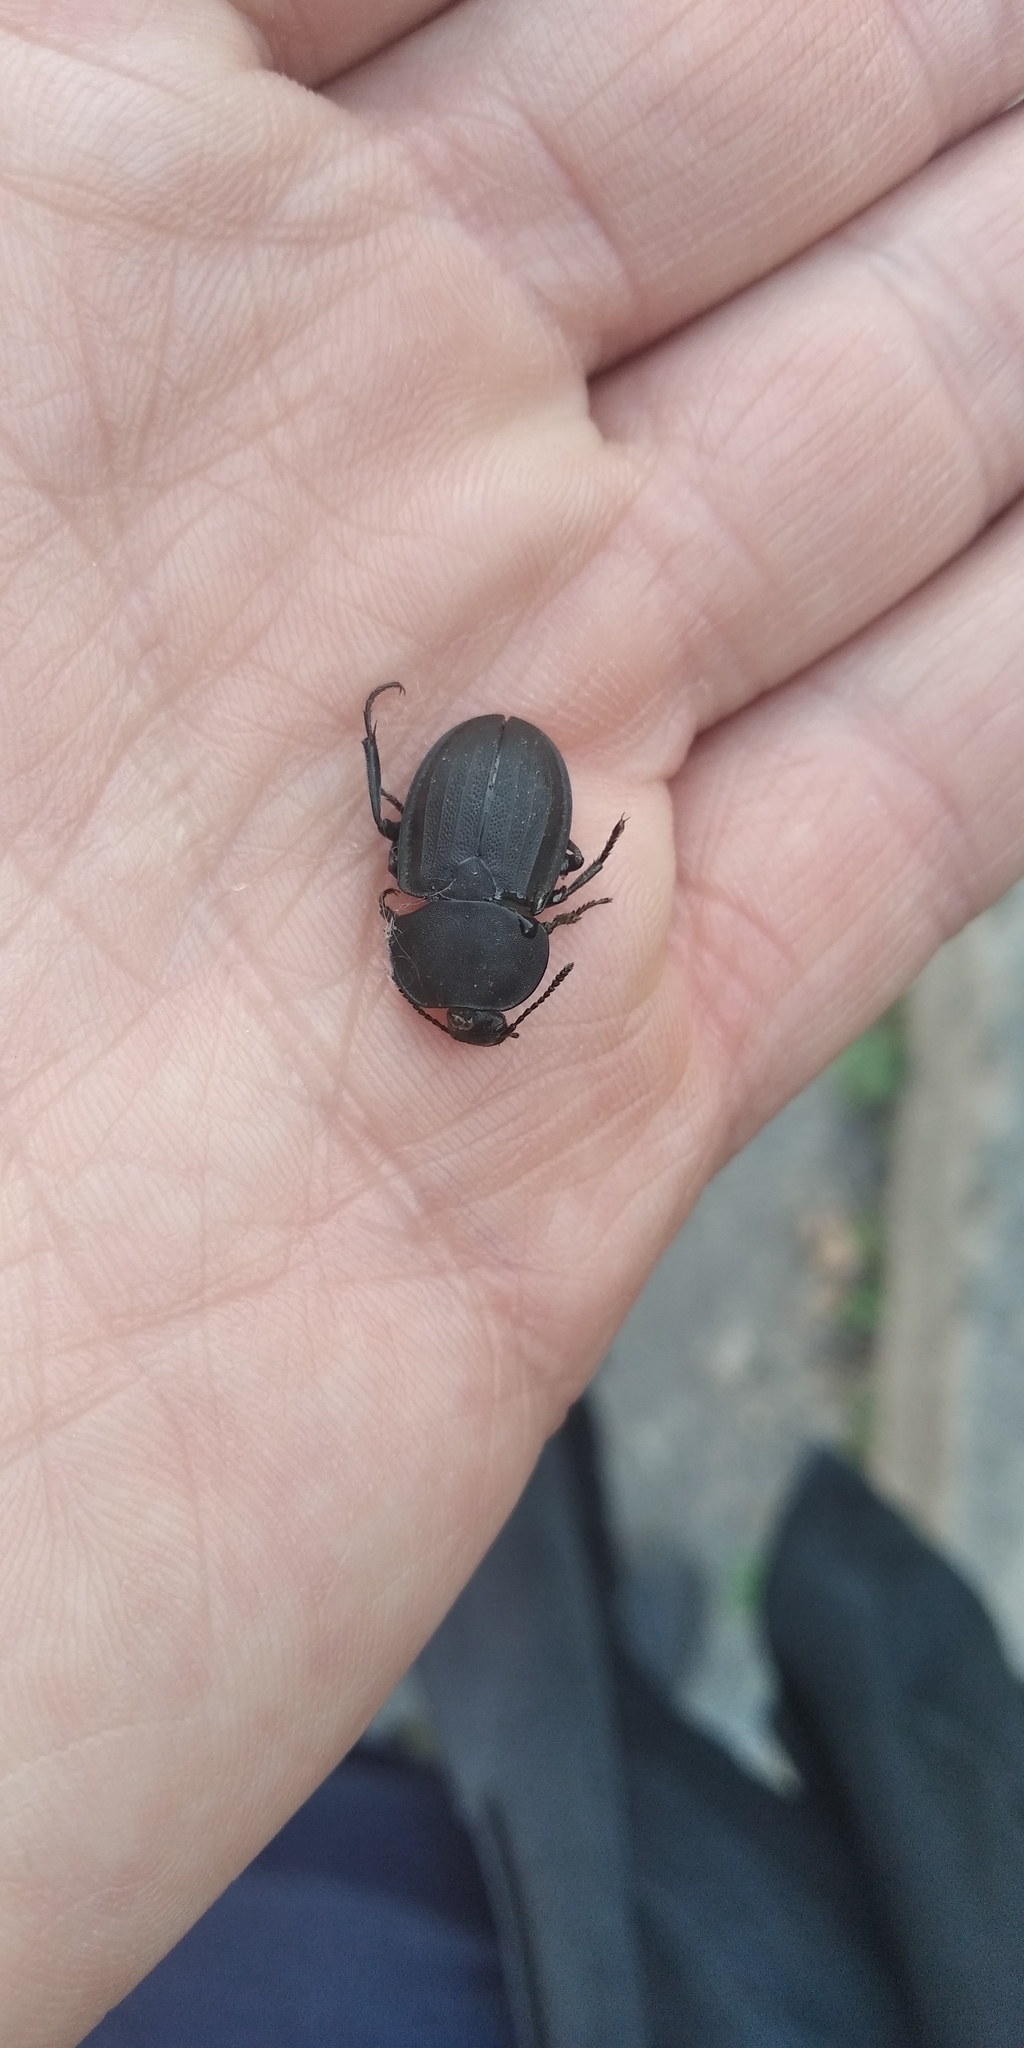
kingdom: Animalia
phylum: Arthropoda
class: Insecta
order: Coleoptera
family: Staphylinidae
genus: Silpha
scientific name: Silpha obscura
